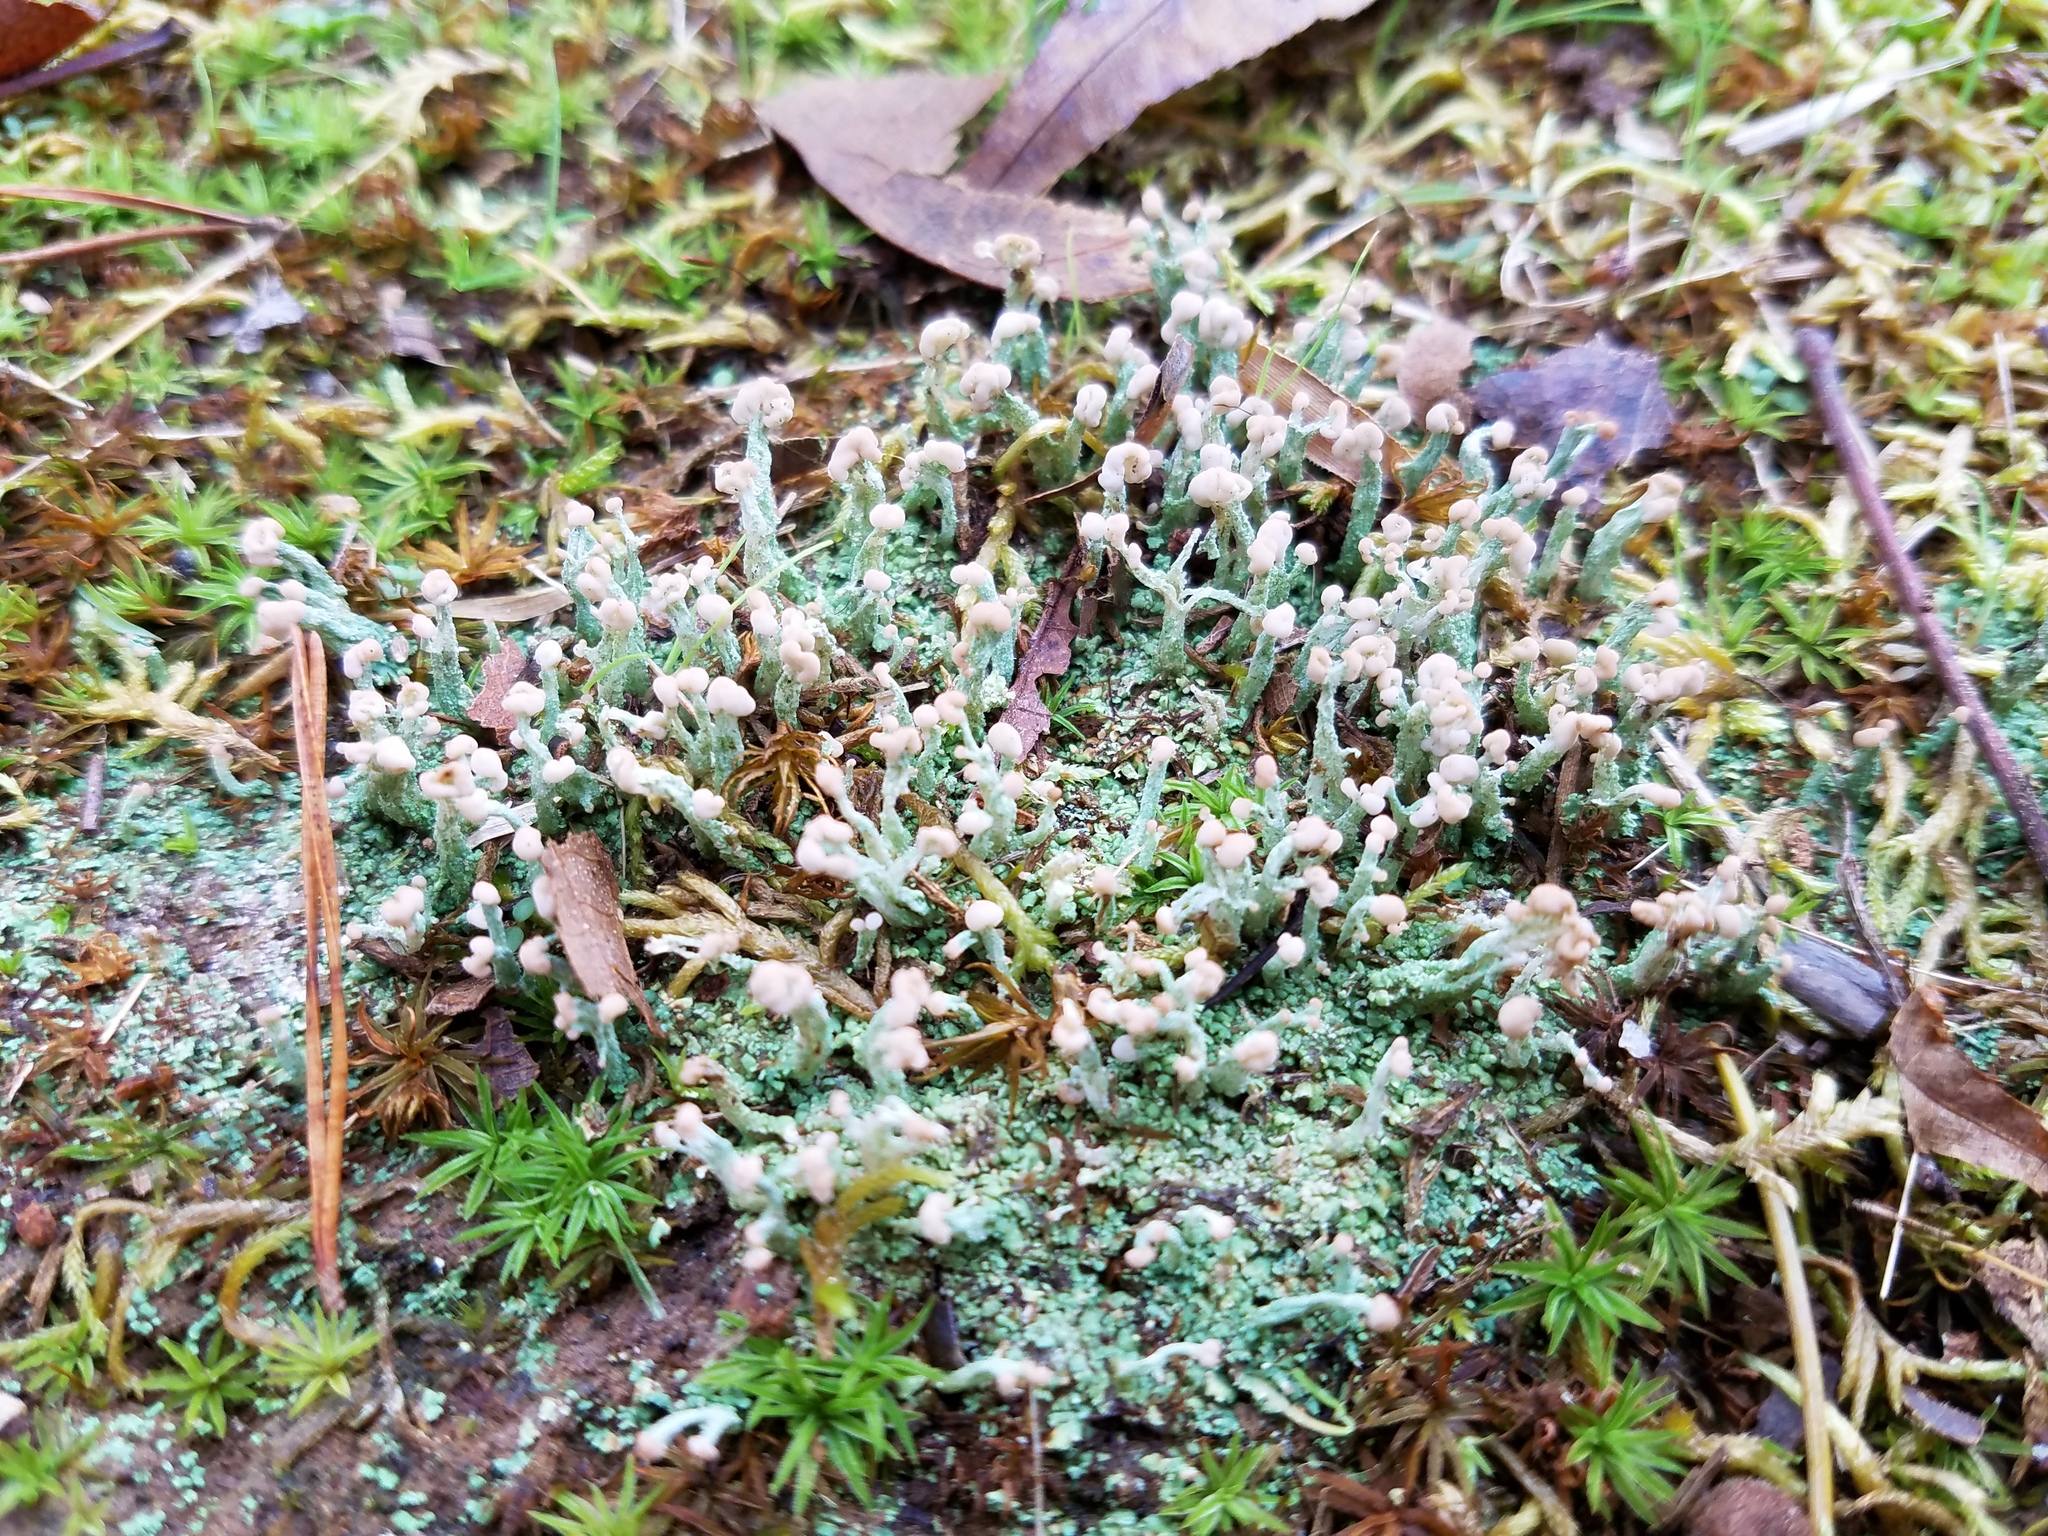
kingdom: Fungi
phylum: Ascomycota
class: Lecanoromycetes
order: Lecanorales
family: Cladoniaceae
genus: Cladonia
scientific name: Cladonia peziziformis
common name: Cup lichen
